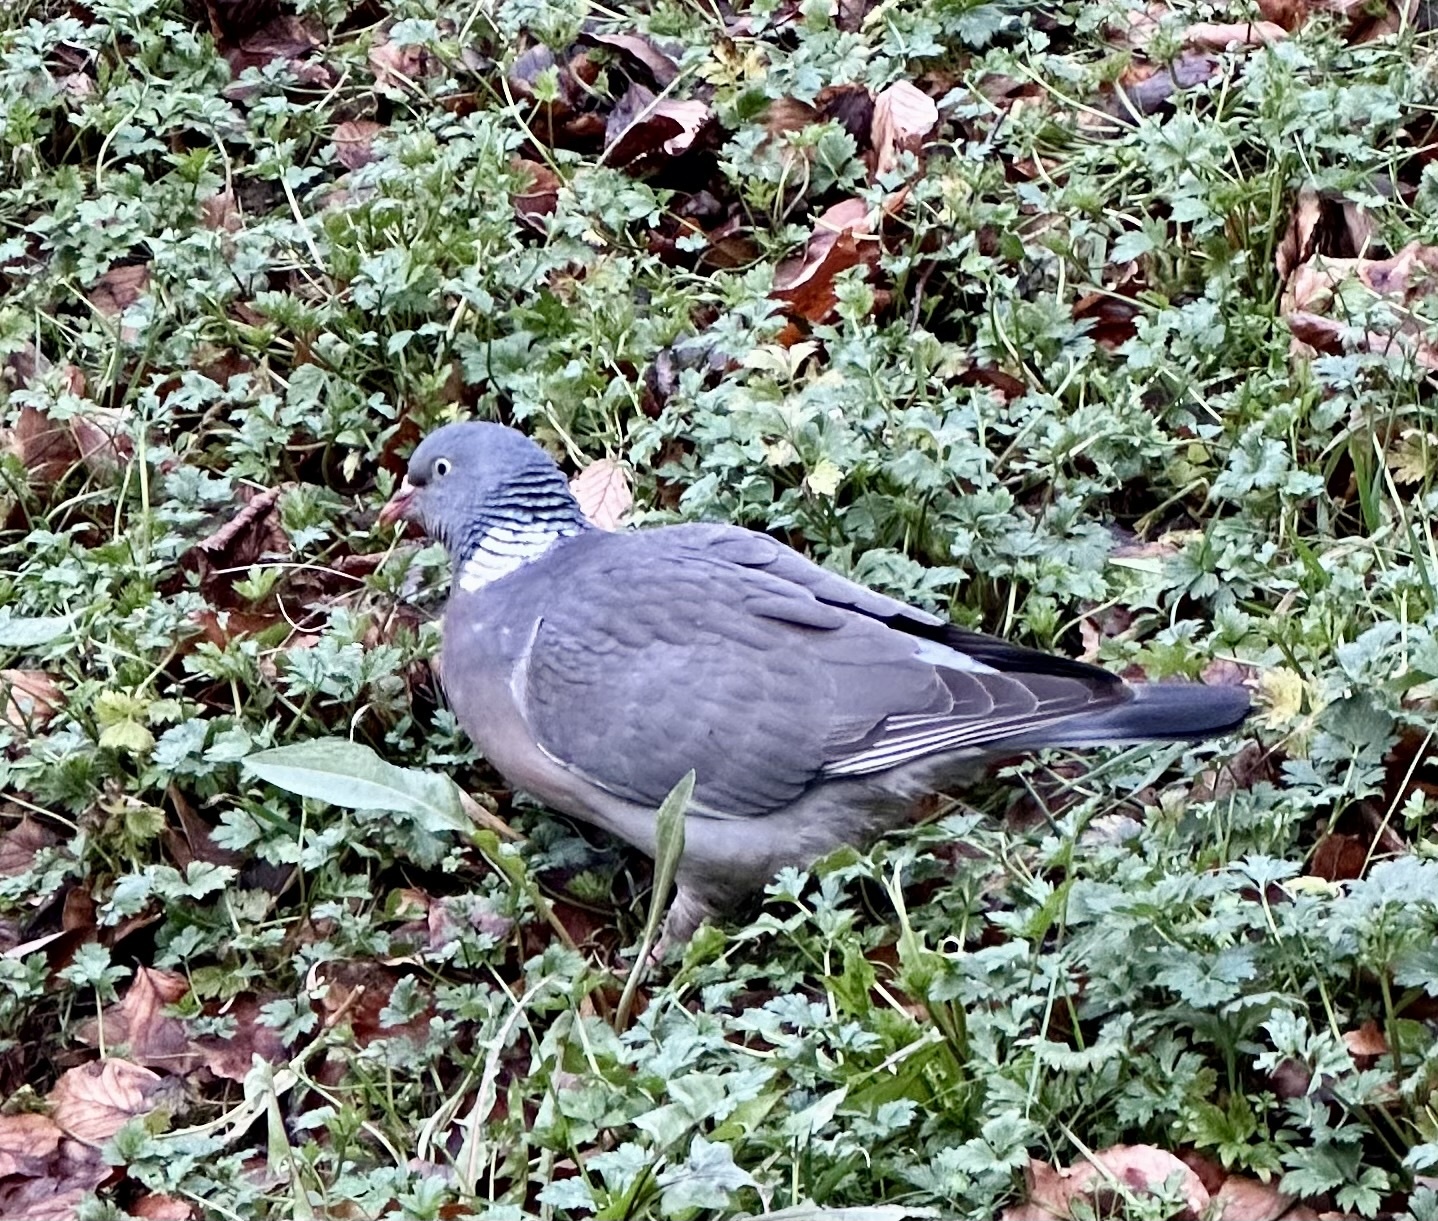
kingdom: Animalia
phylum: Chordata
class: Aves
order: Columbiformes
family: Columbidae
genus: Columba
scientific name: Columba palumbus
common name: Common wood pigeon
